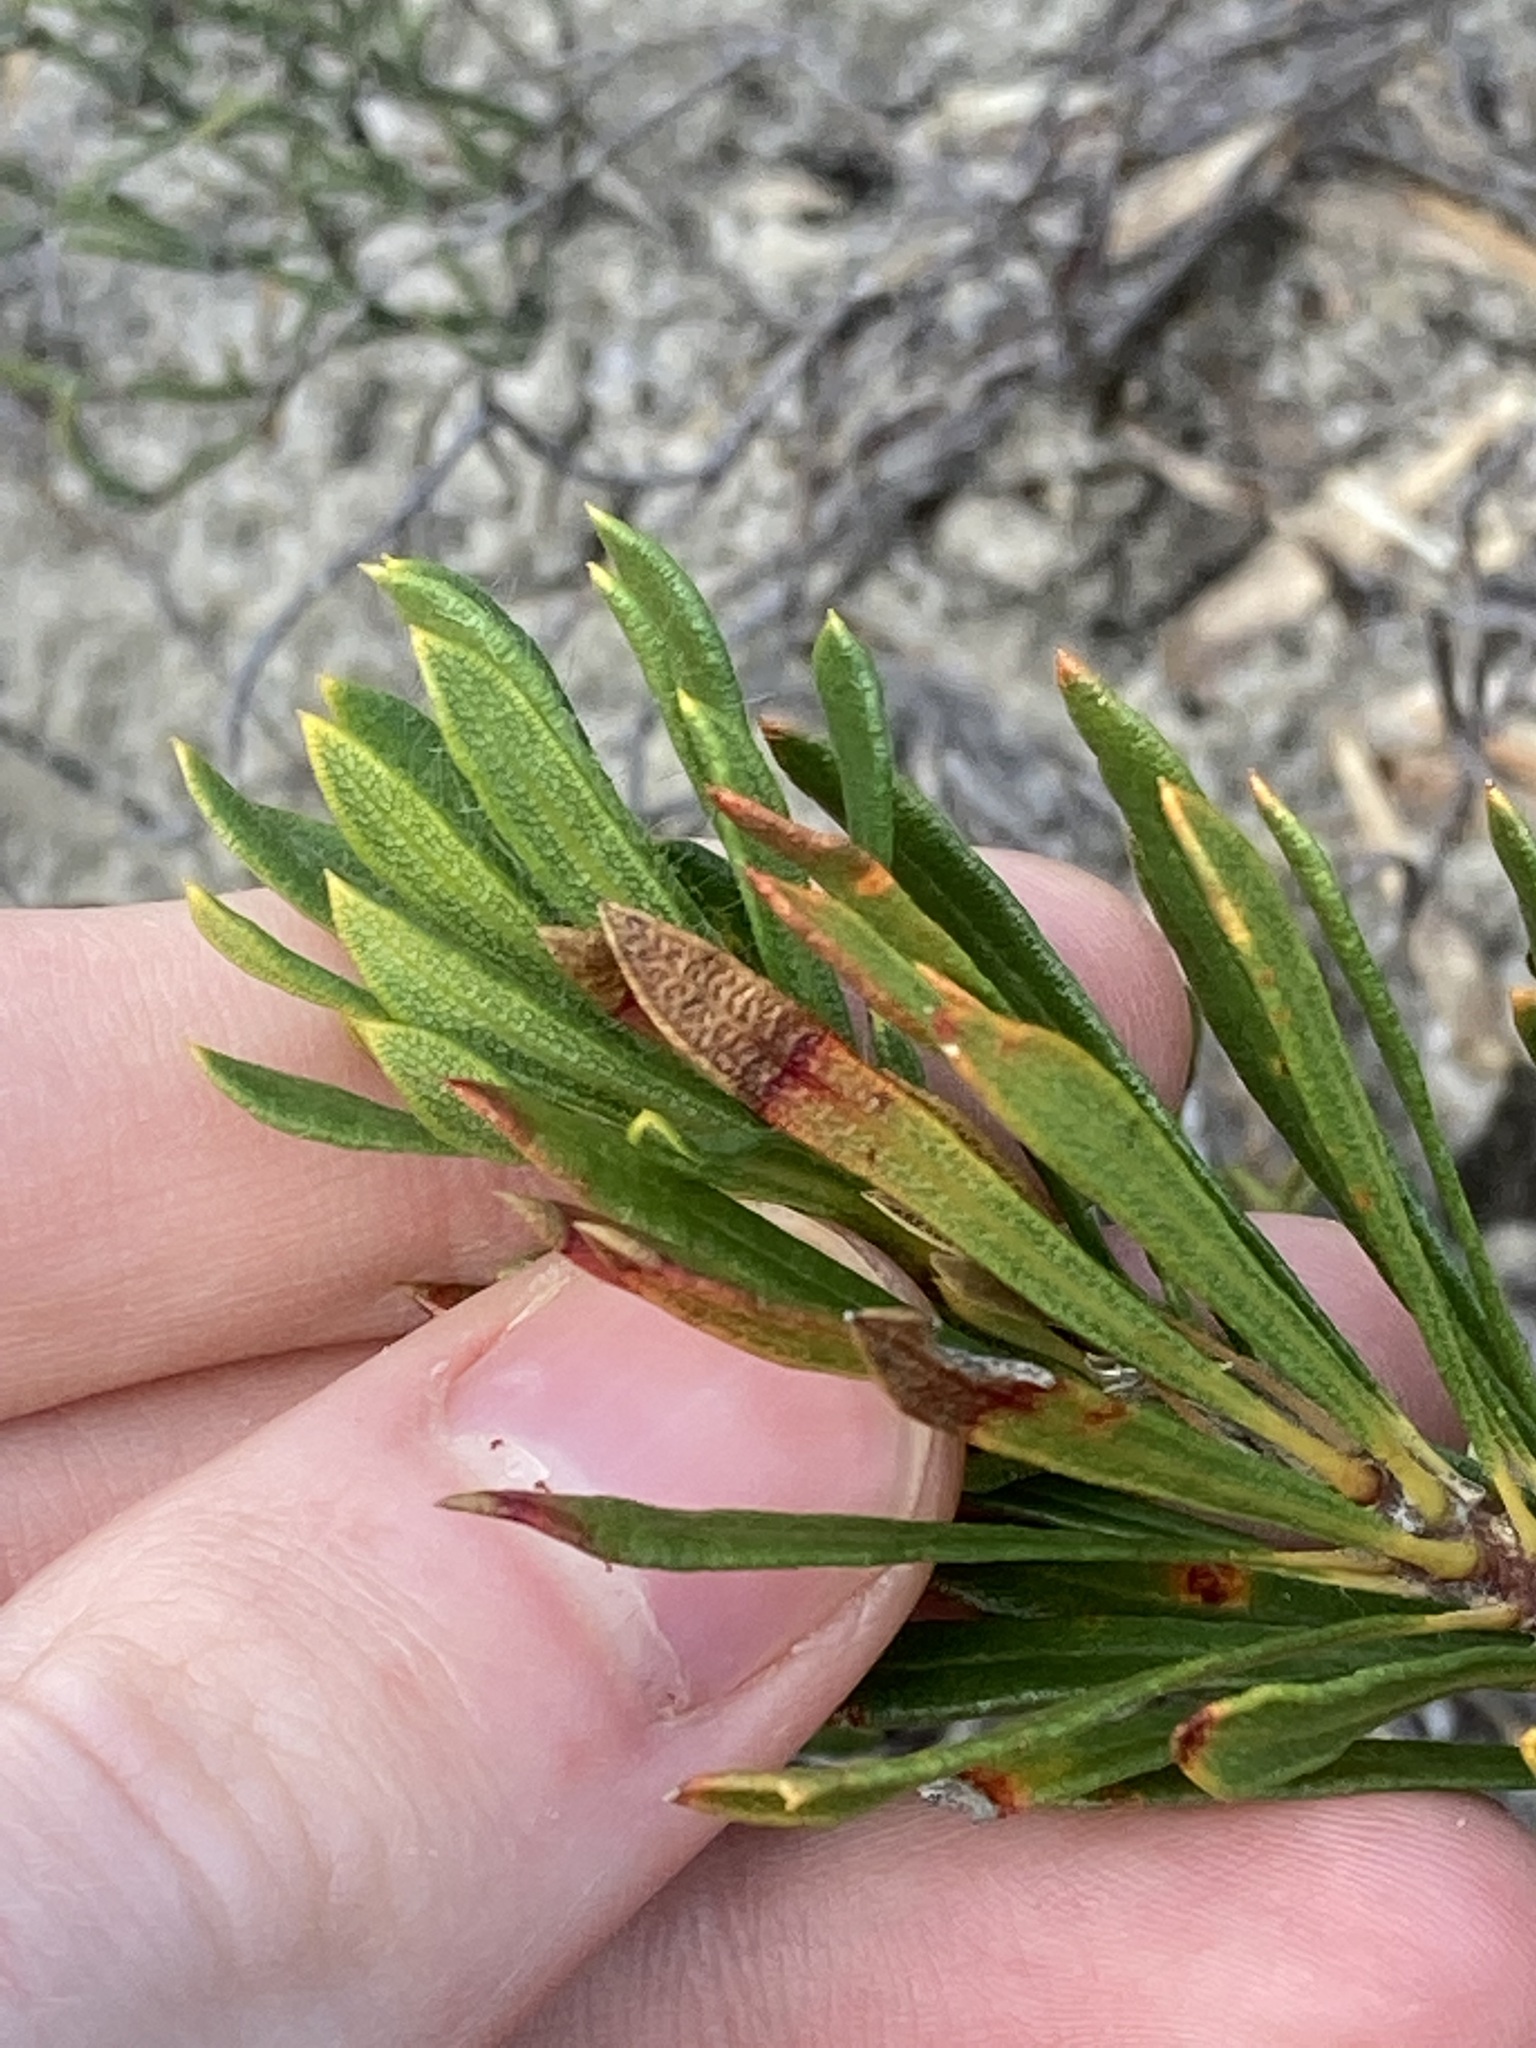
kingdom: Plantae
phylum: Tracheophyta
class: Magnoliopsida
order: Proteales
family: Proteaceae
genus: Banksia
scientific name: Banksia tridentata
